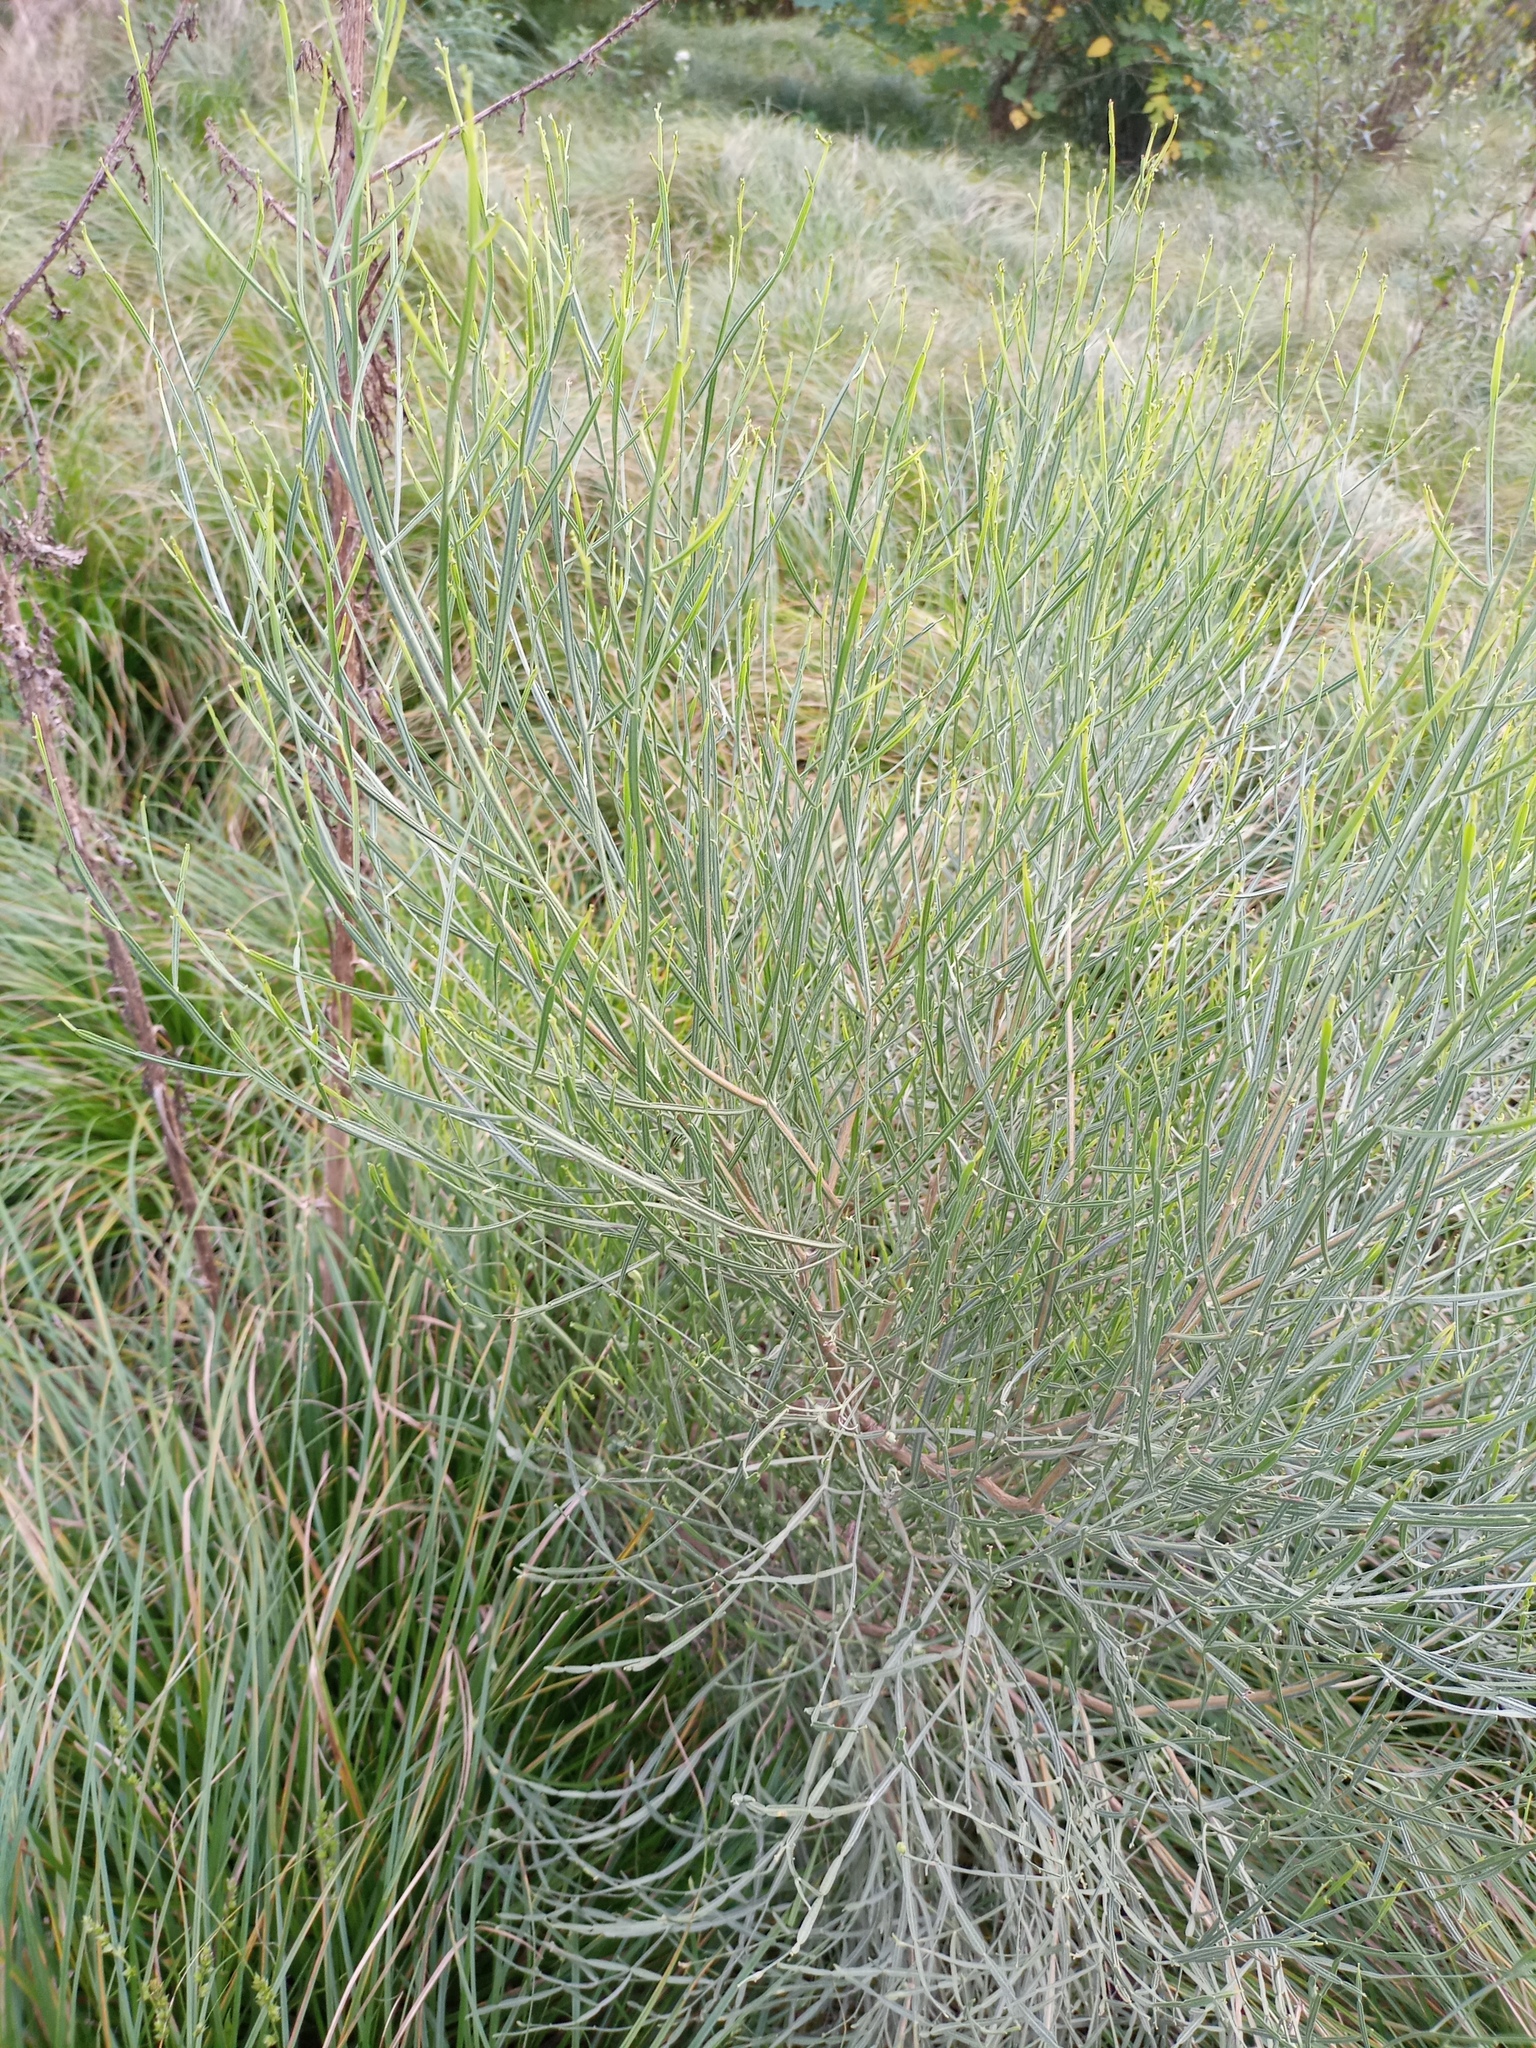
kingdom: Plantae
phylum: Tracheophyta
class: Magnoliopsida
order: Asterales
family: Asteraceae
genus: Baccharis
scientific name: Baccharis articulata
